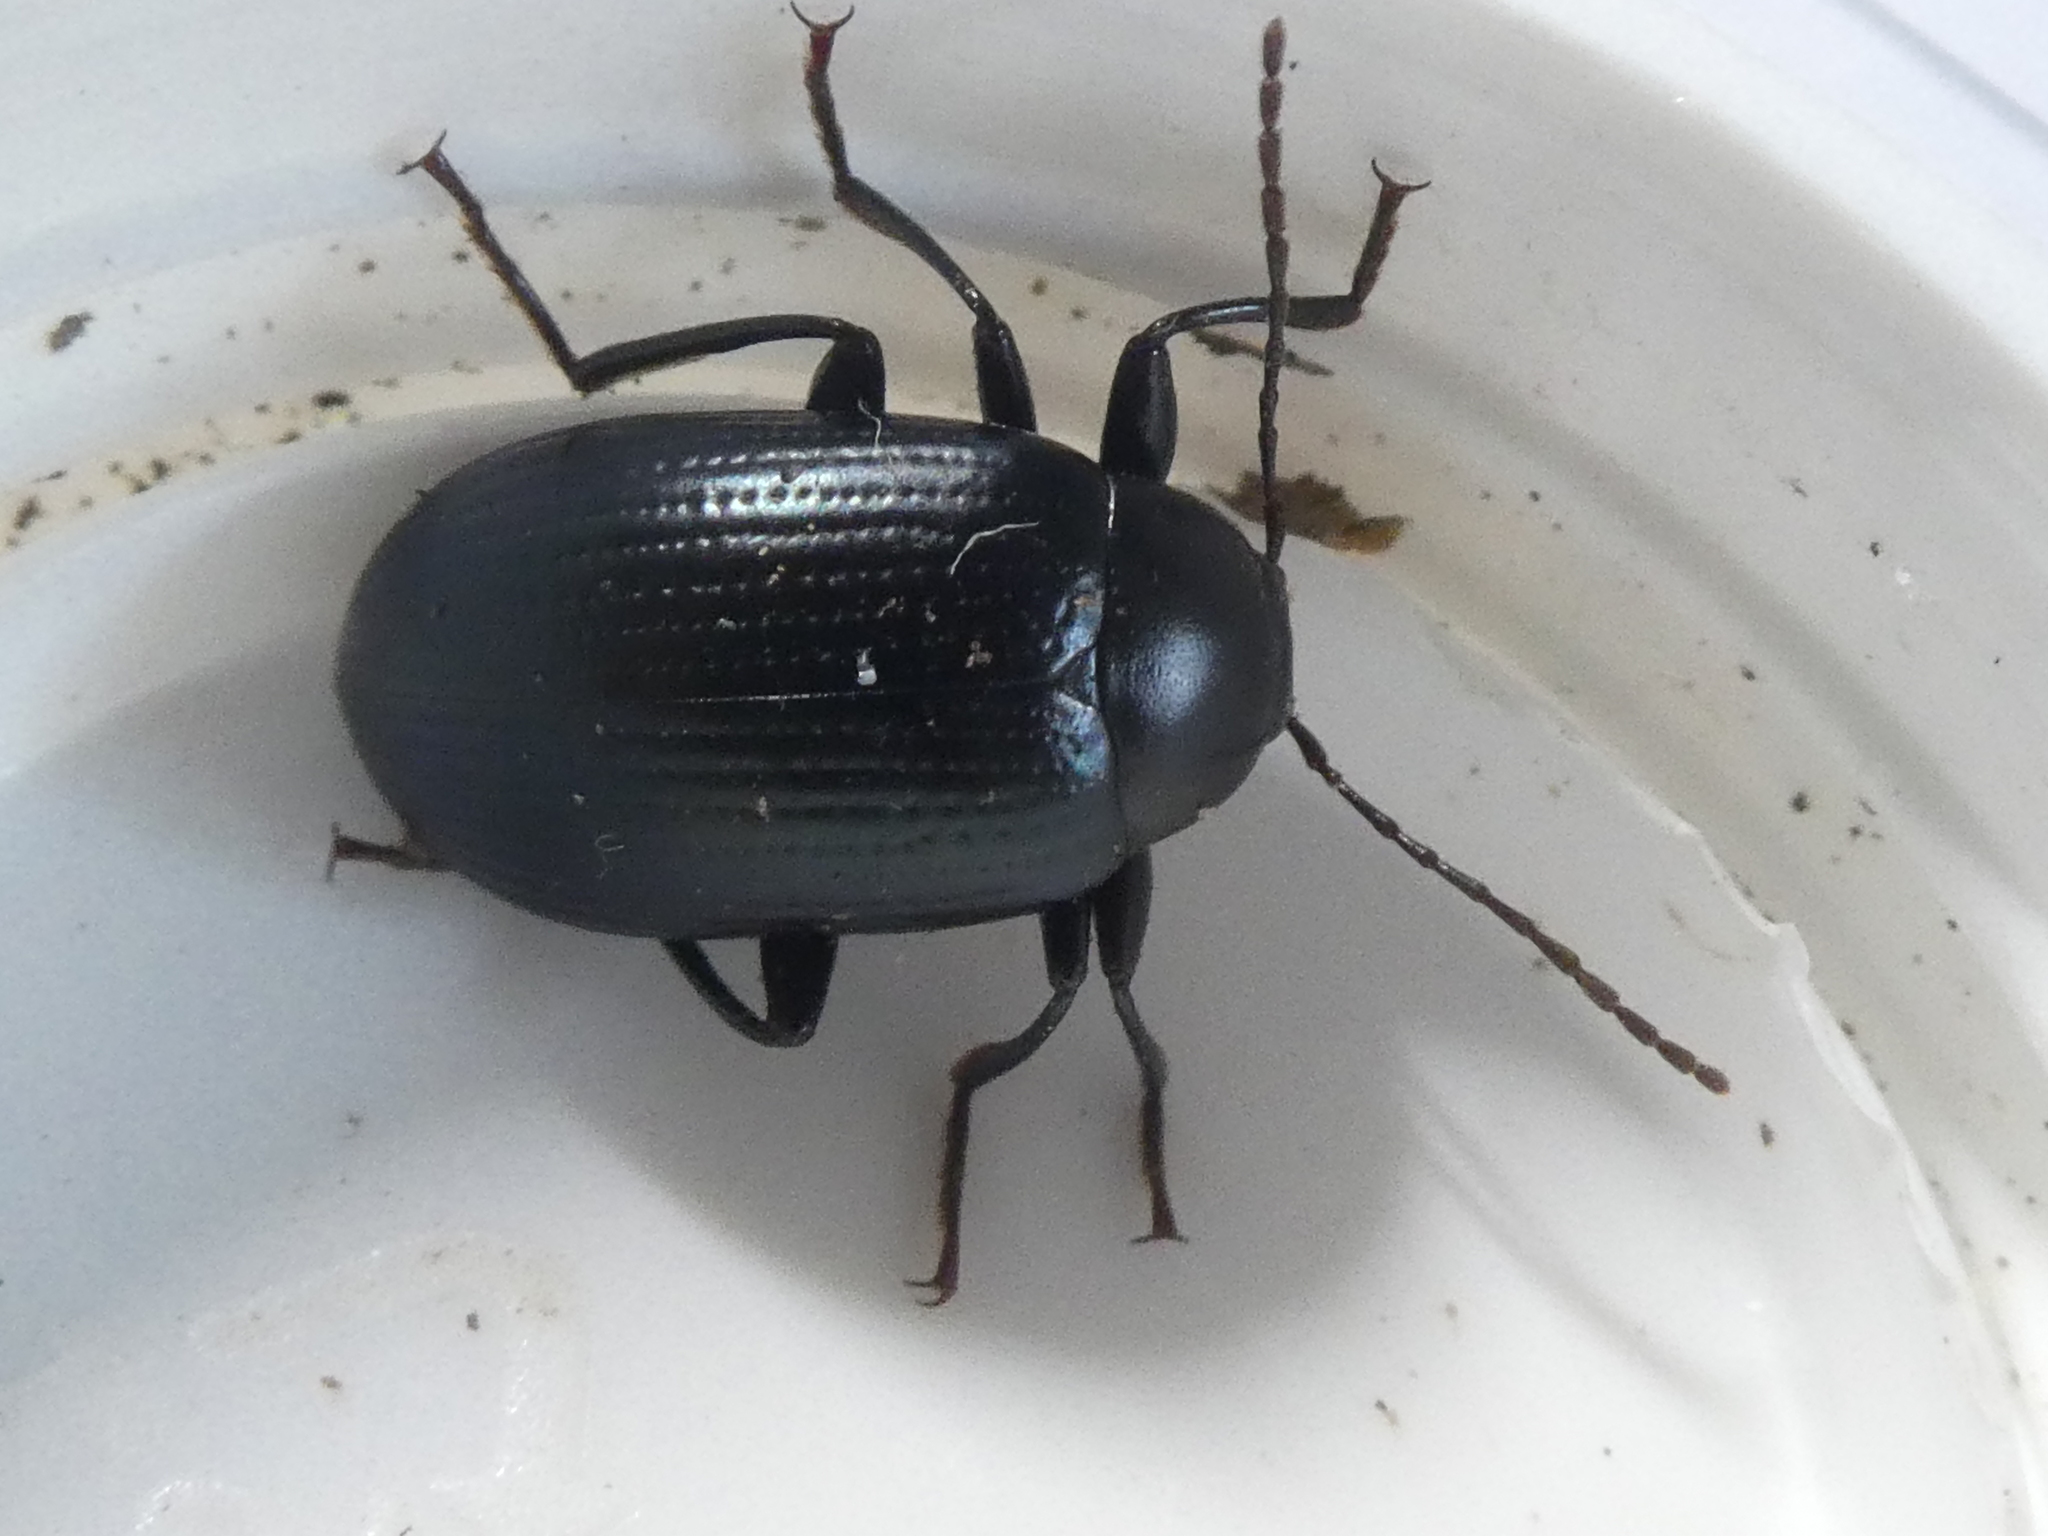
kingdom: Animalia
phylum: Arthropoda
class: Insecta
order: Coleoptera
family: Tenebrionidae
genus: Amarygmus
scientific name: Amarygmus
